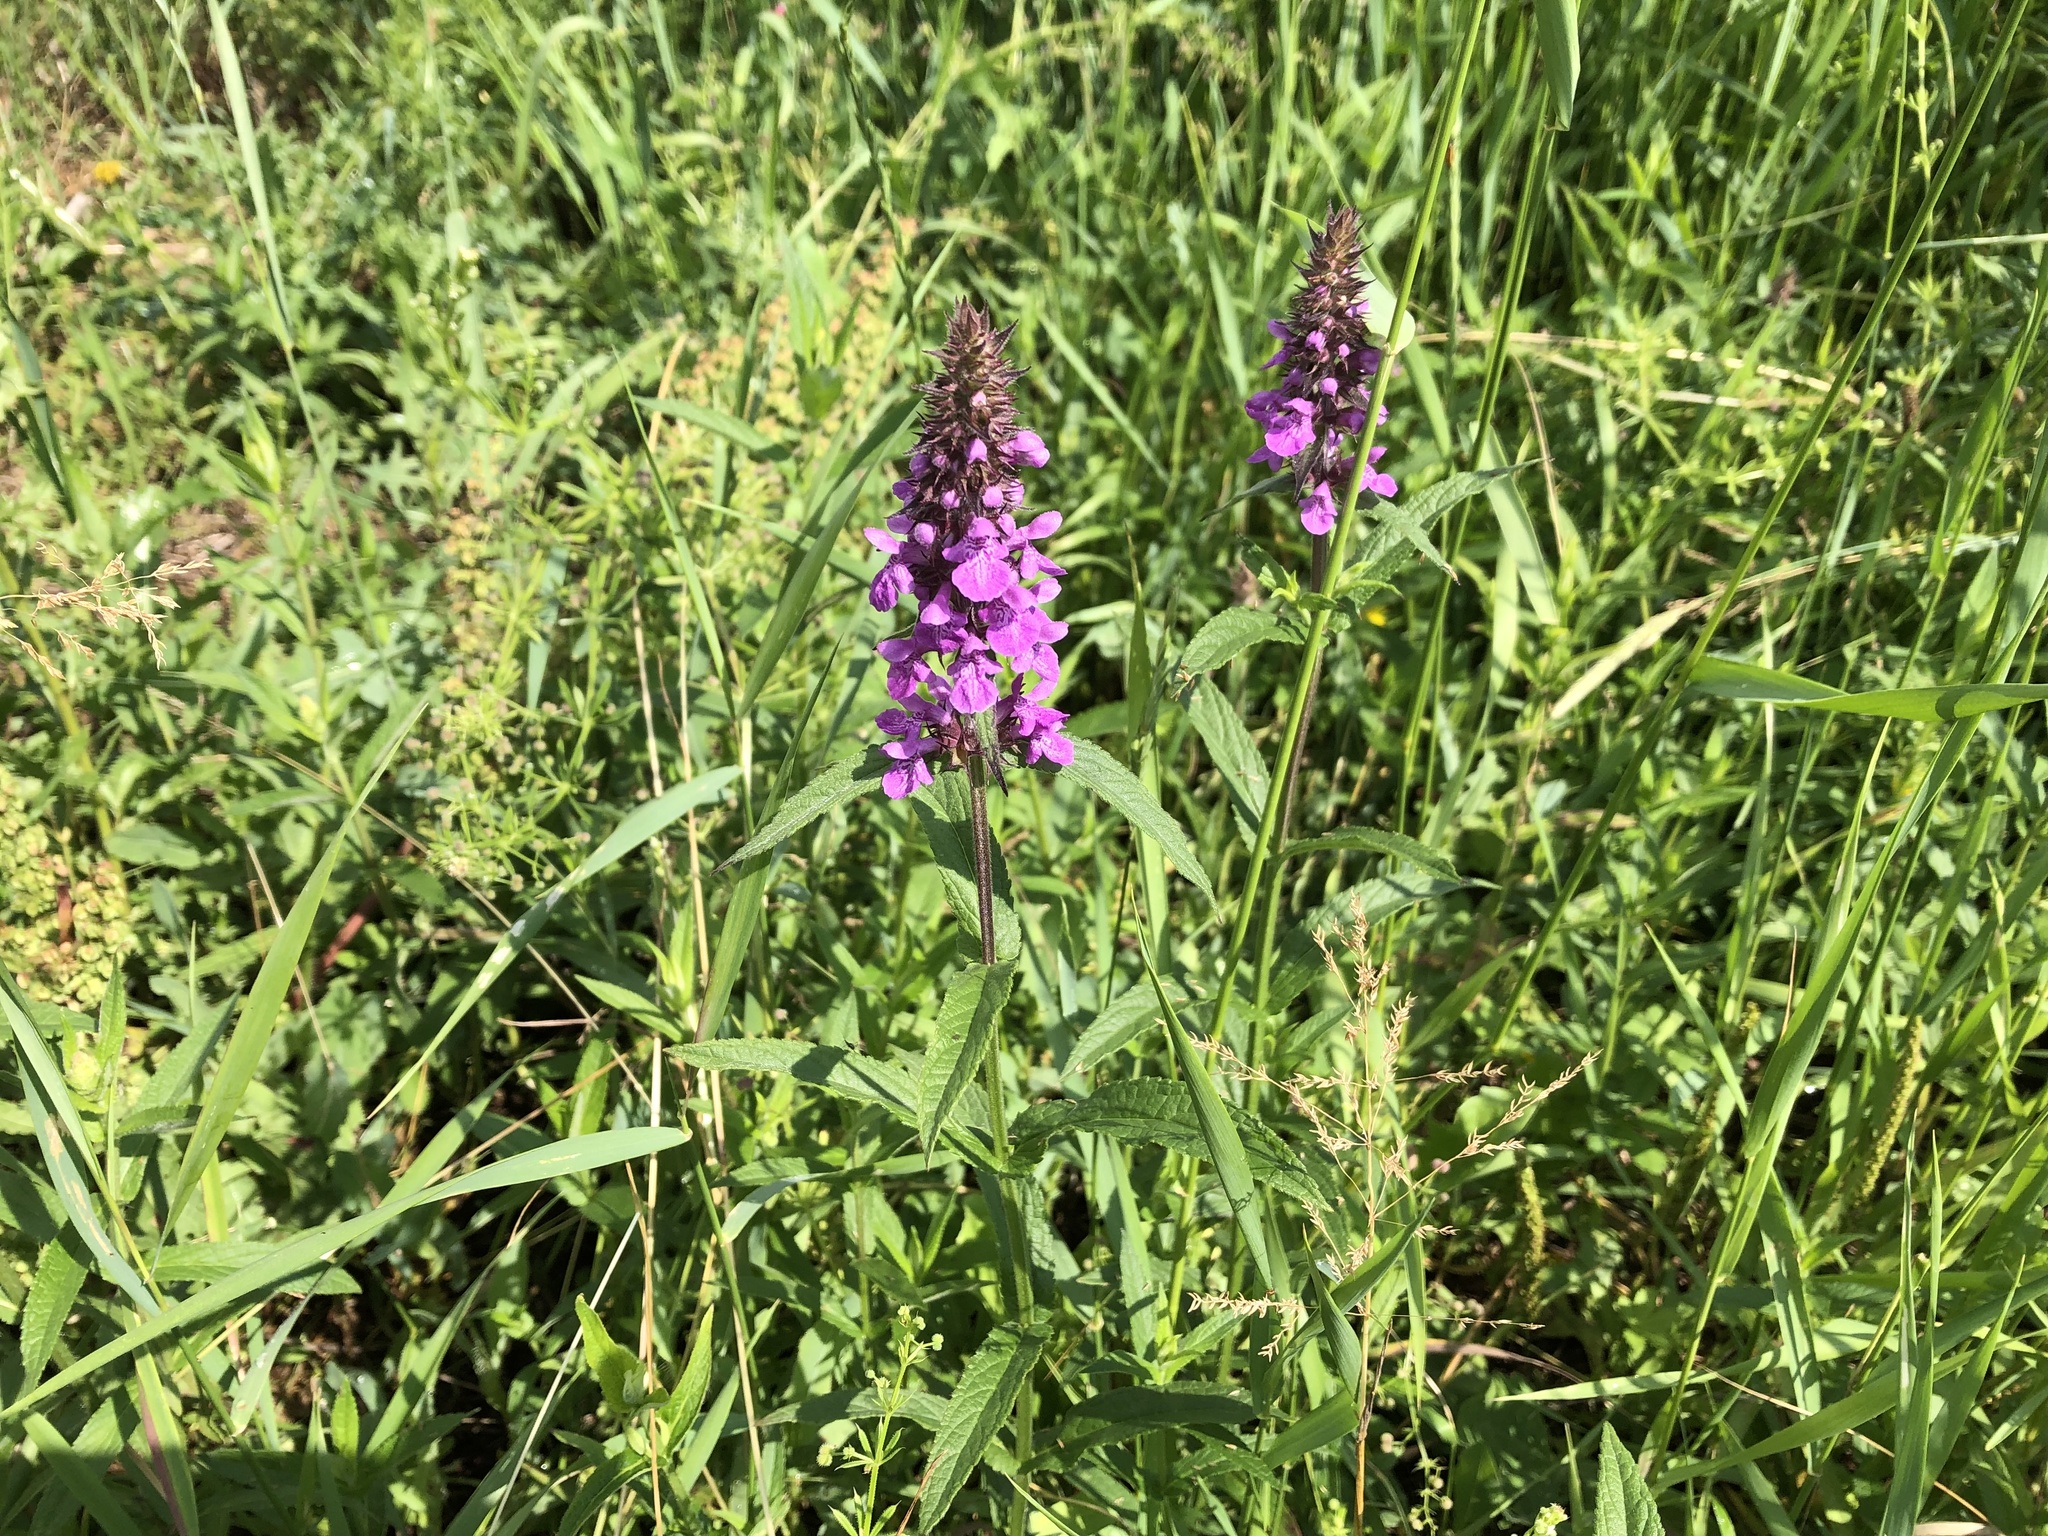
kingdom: Plantae
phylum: Tracheophyta
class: Magnoliopsida
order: Lamiales
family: Lamiaceae
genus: Stachys
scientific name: Stachys palustris
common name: Marsh woundwort
